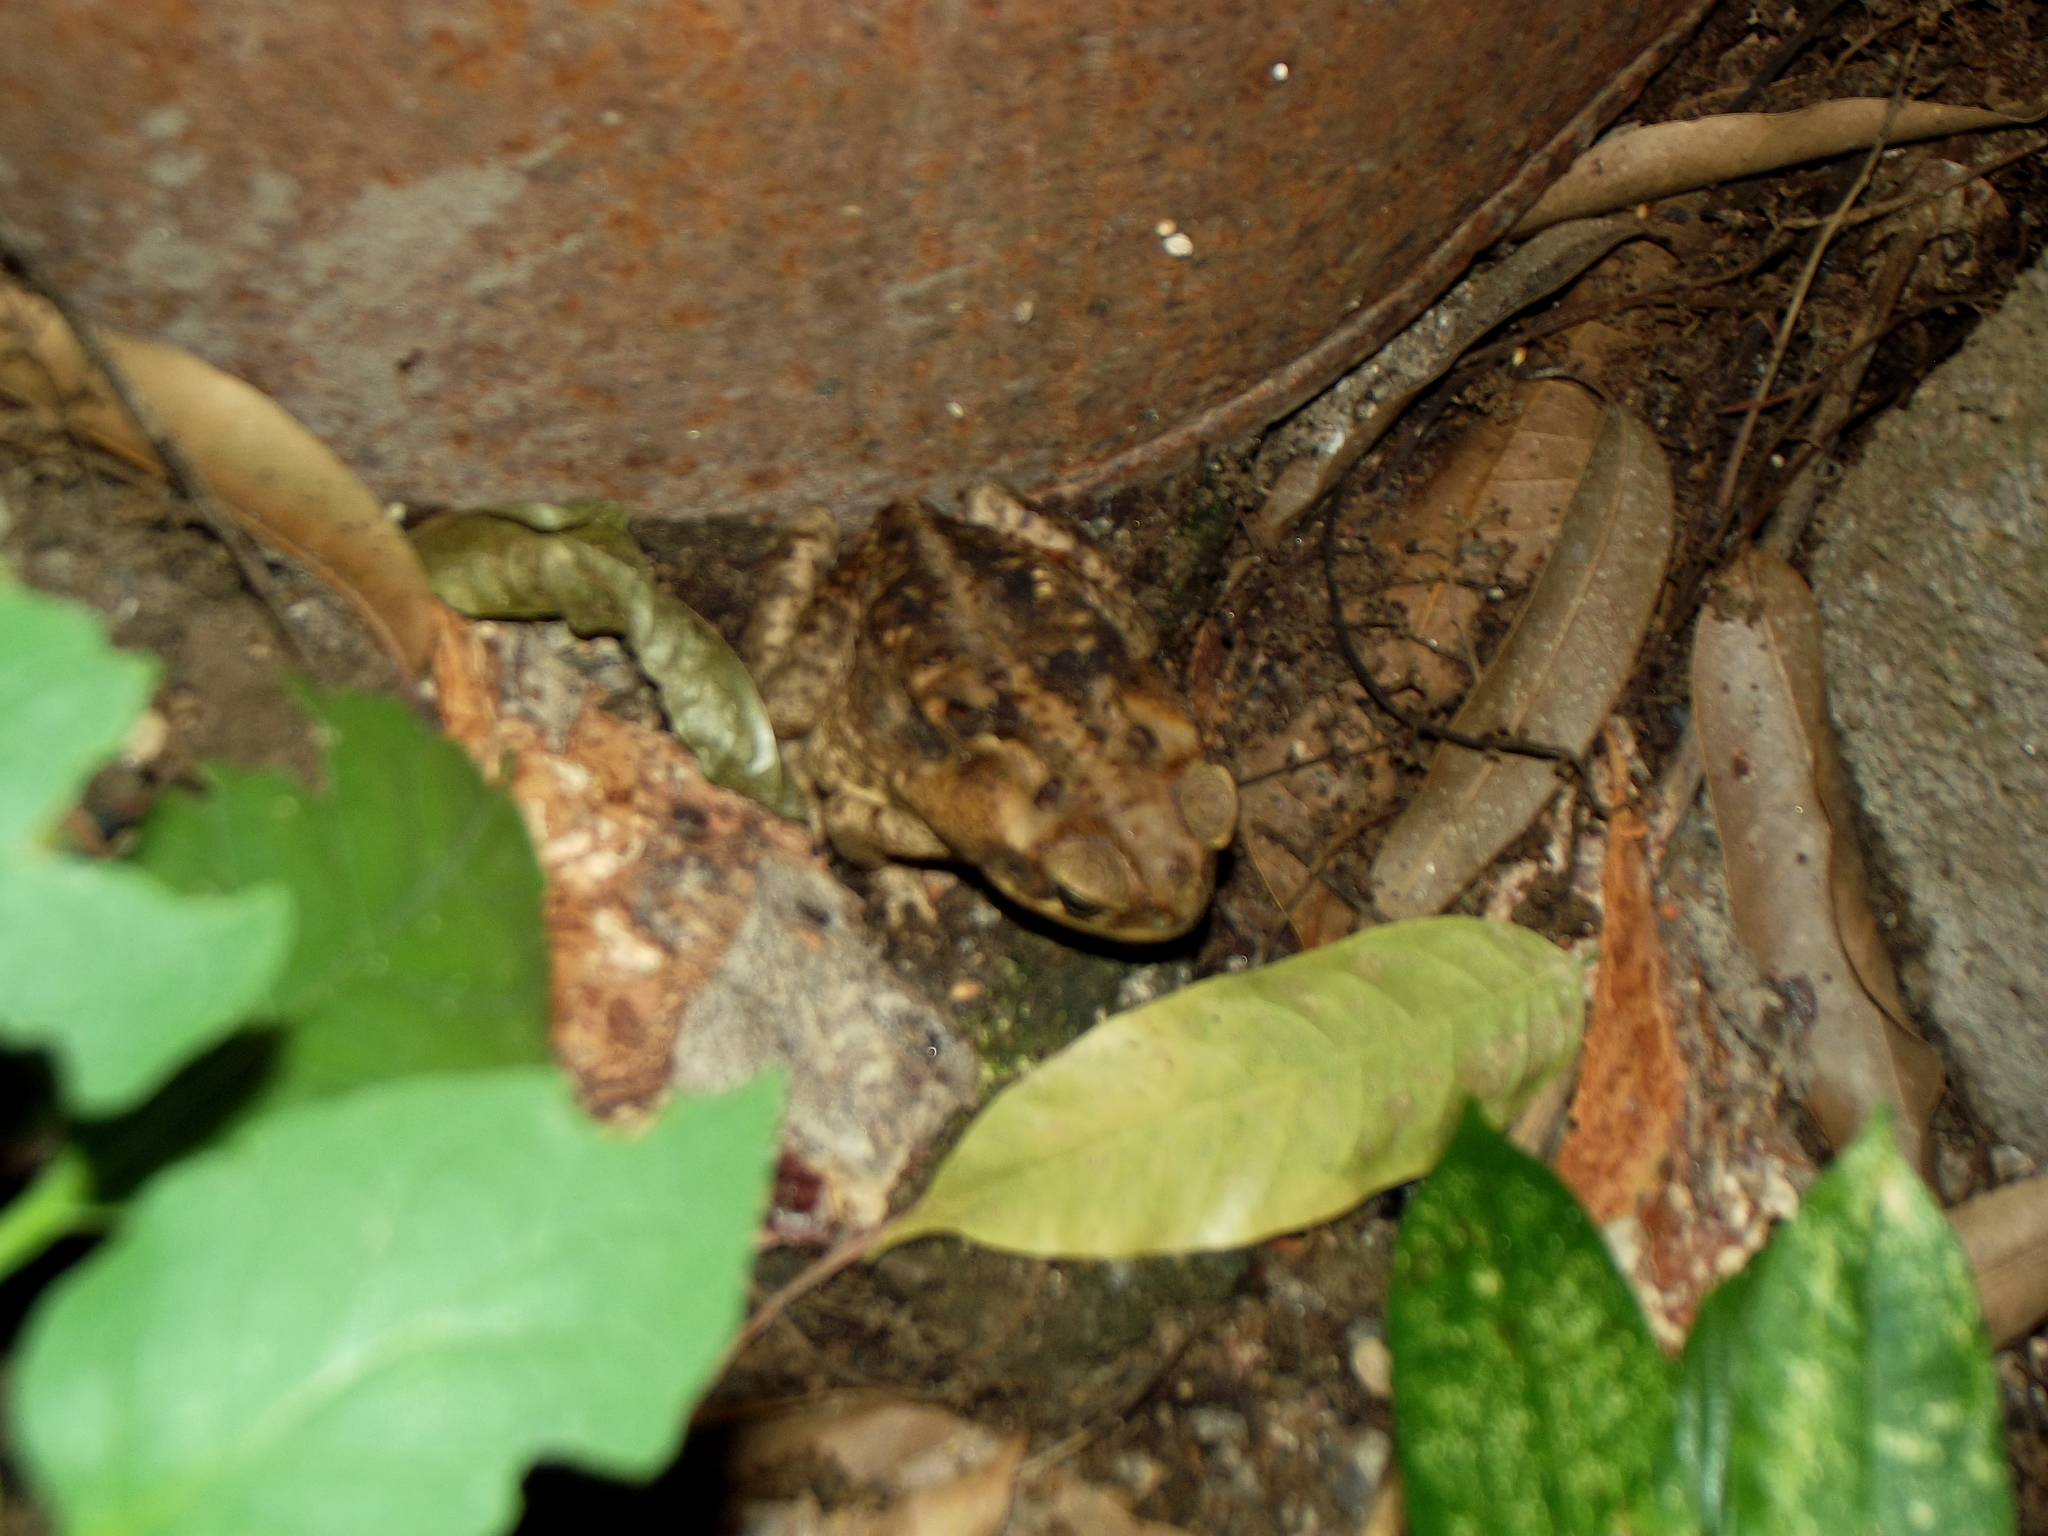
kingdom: Animalia
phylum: Chordata
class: Amphibia
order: Anura
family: Bufonidae
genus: Rhinella
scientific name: Rhinella horribilis
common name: Mesoamerican cane toad
